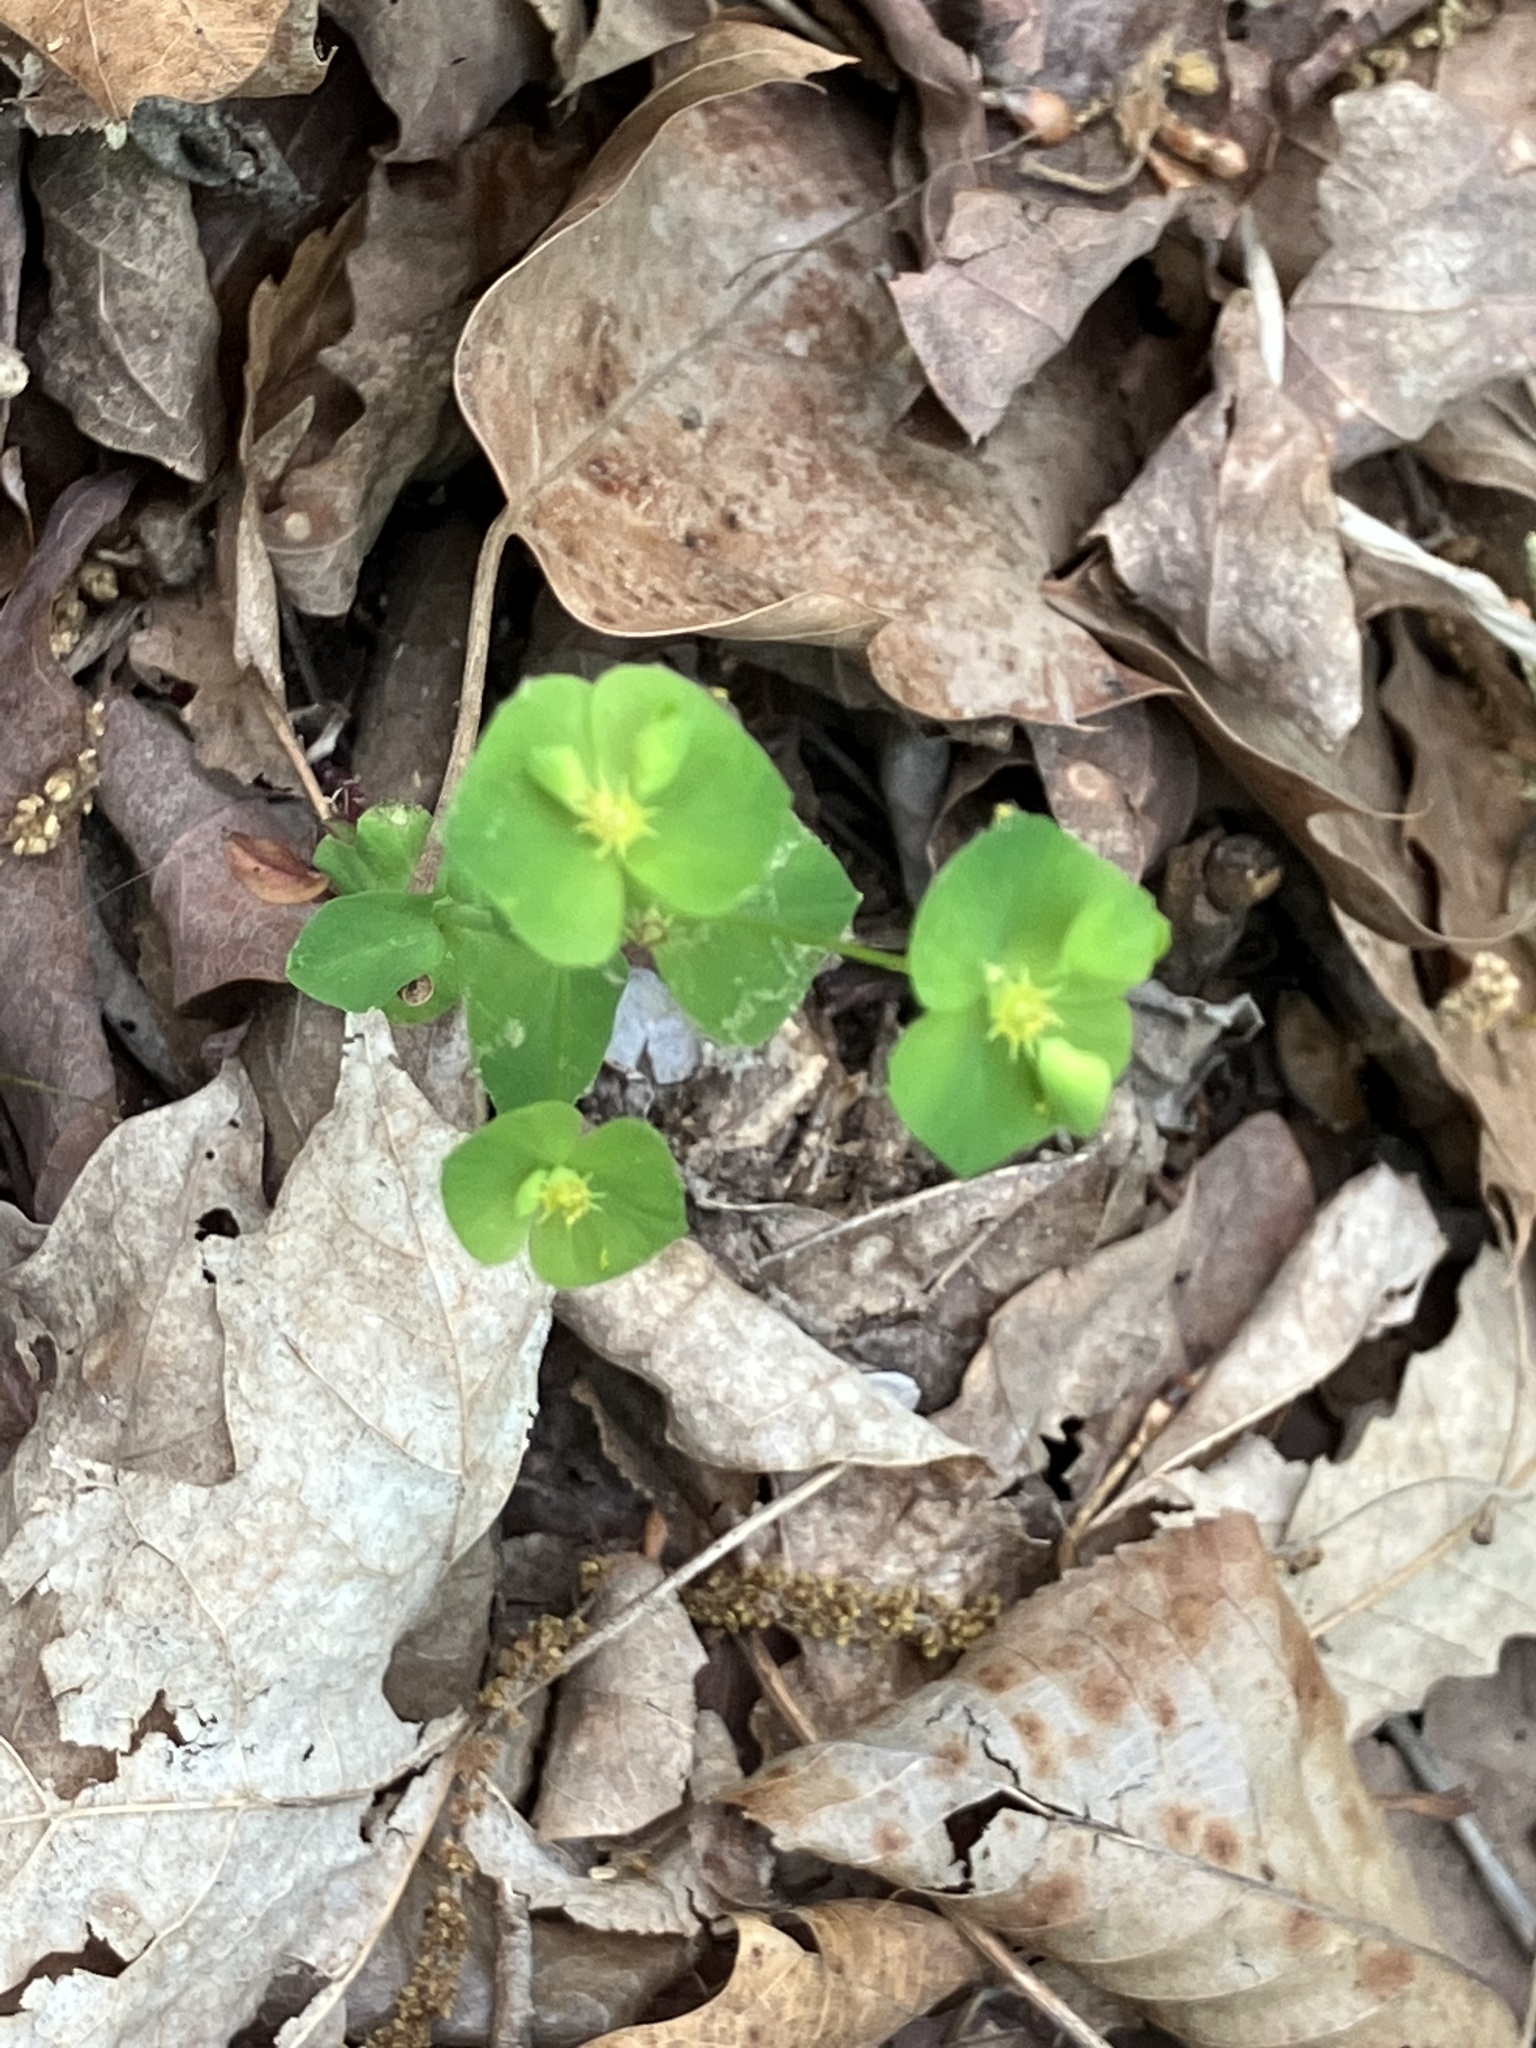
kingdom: Plantae
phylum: Tracheophyta
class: Magnoliopsida
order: Malpighiales
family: Euphorbiaceae
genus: Euphorbia
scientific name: Euphorbia commutata
